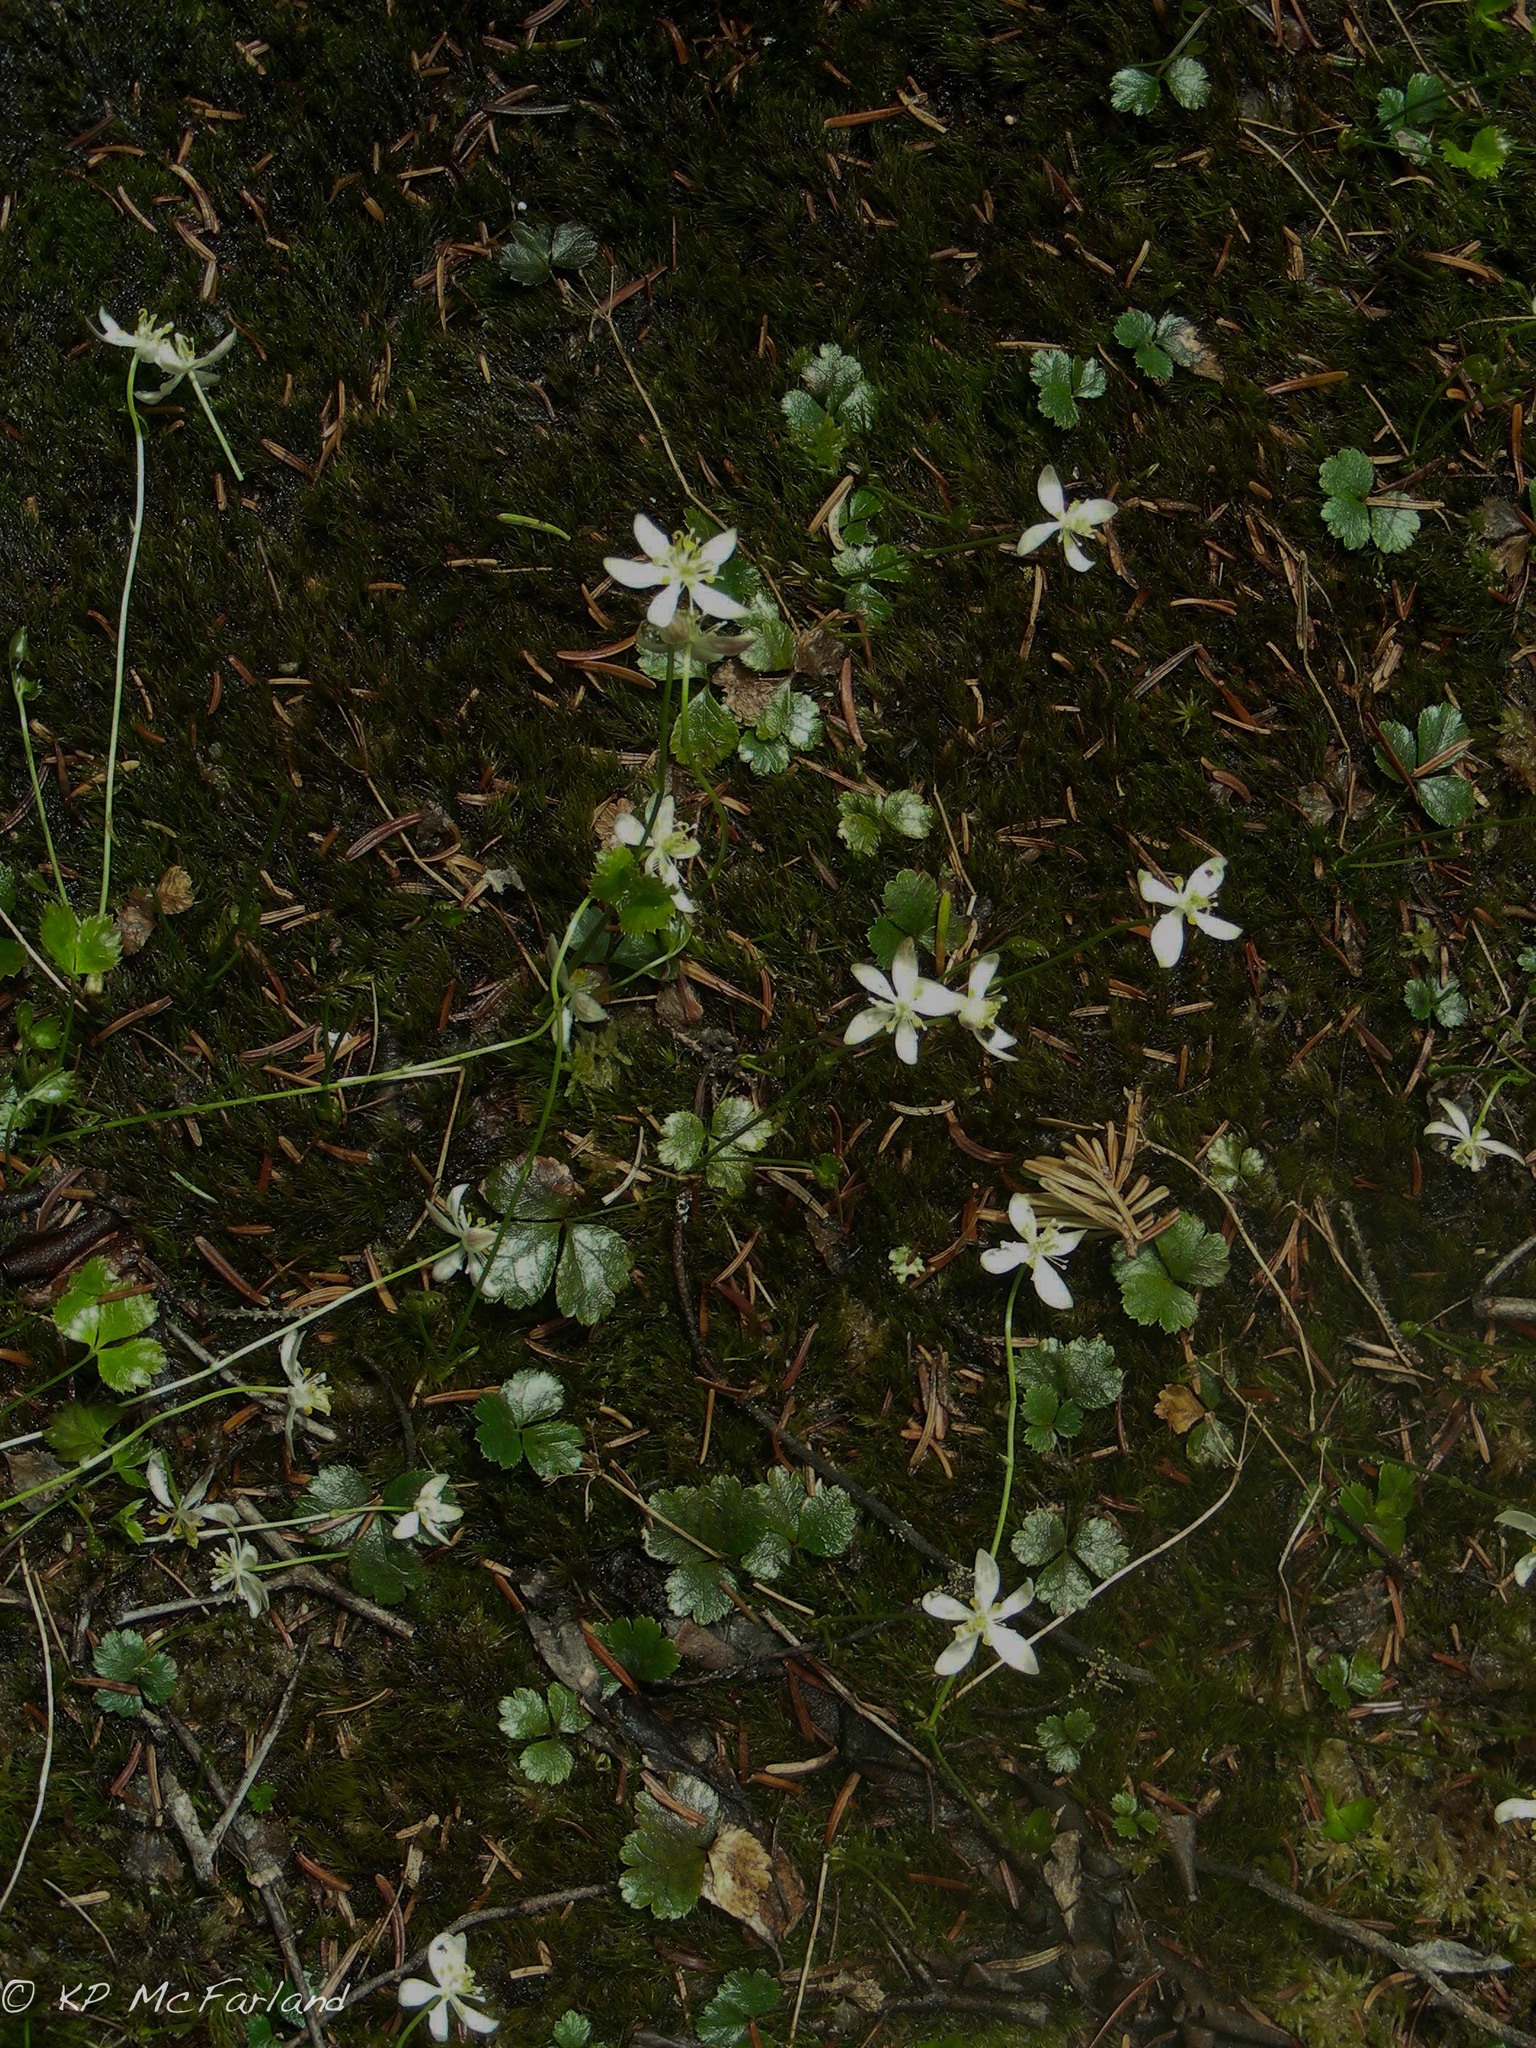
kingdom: Plantae
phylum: Tracheophyta
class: Magnoliopsida
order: Ranunculales
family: Ranunculaceae
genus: Coptis
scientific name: Coptis trifolia
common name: Canker-root
